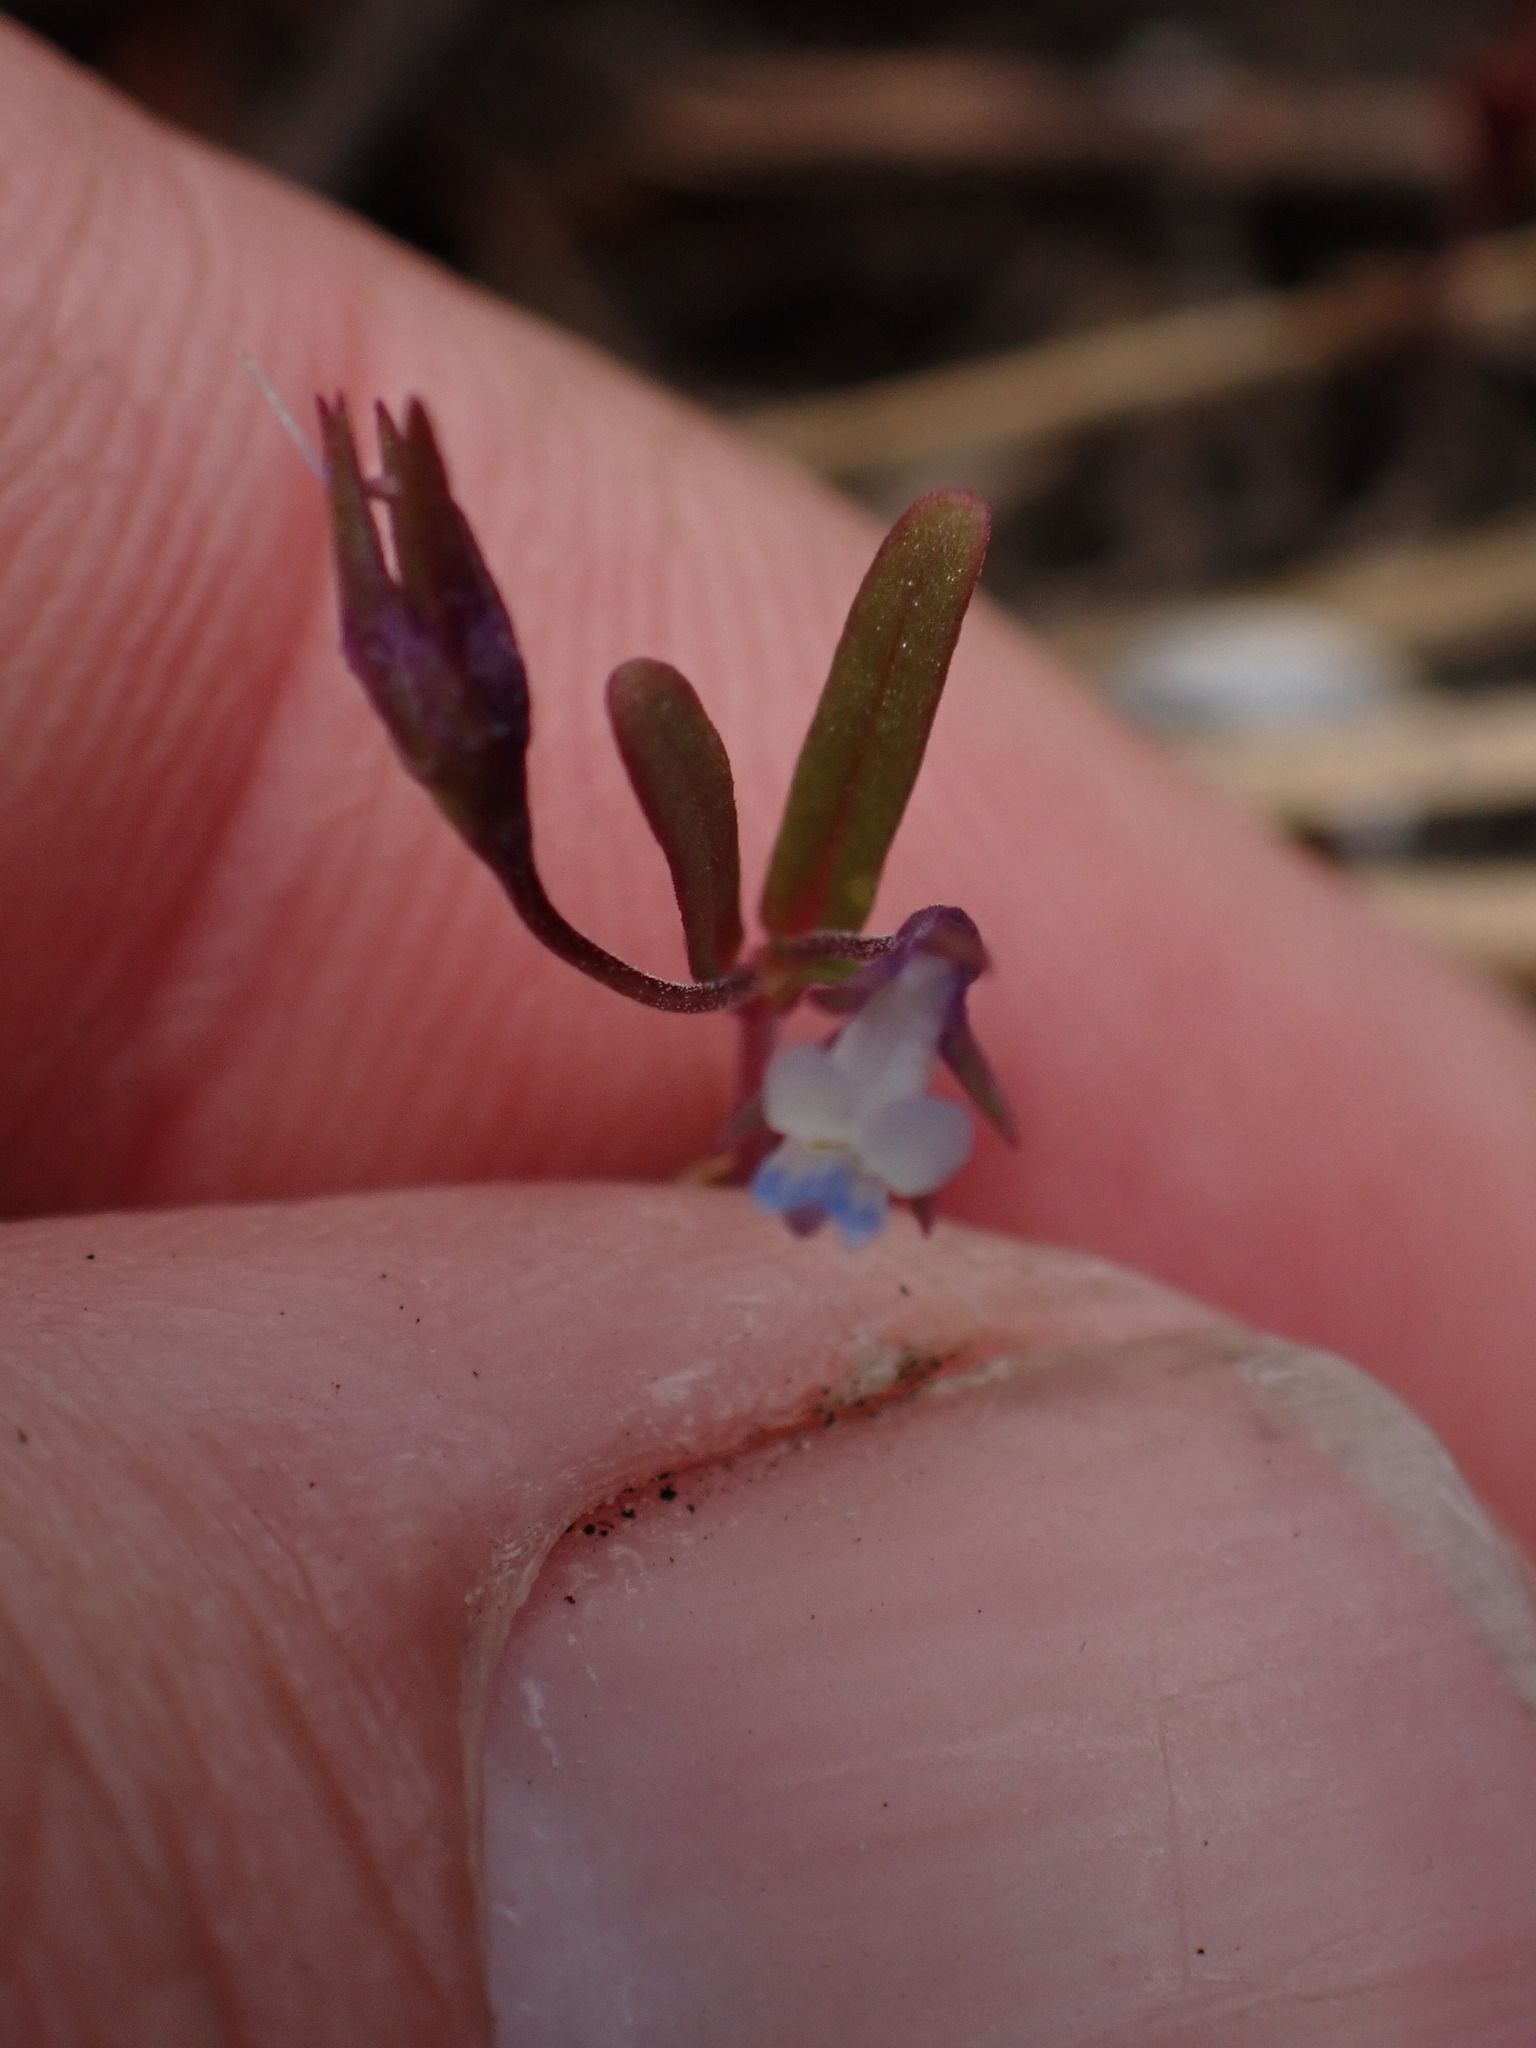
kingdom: Plantae
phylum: Tracheophyta
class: Magnoliopsida
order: Lamiales
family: Plantaginaceae
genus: Collinsia
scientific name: Collinsia parviflora
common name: Blue-lips
